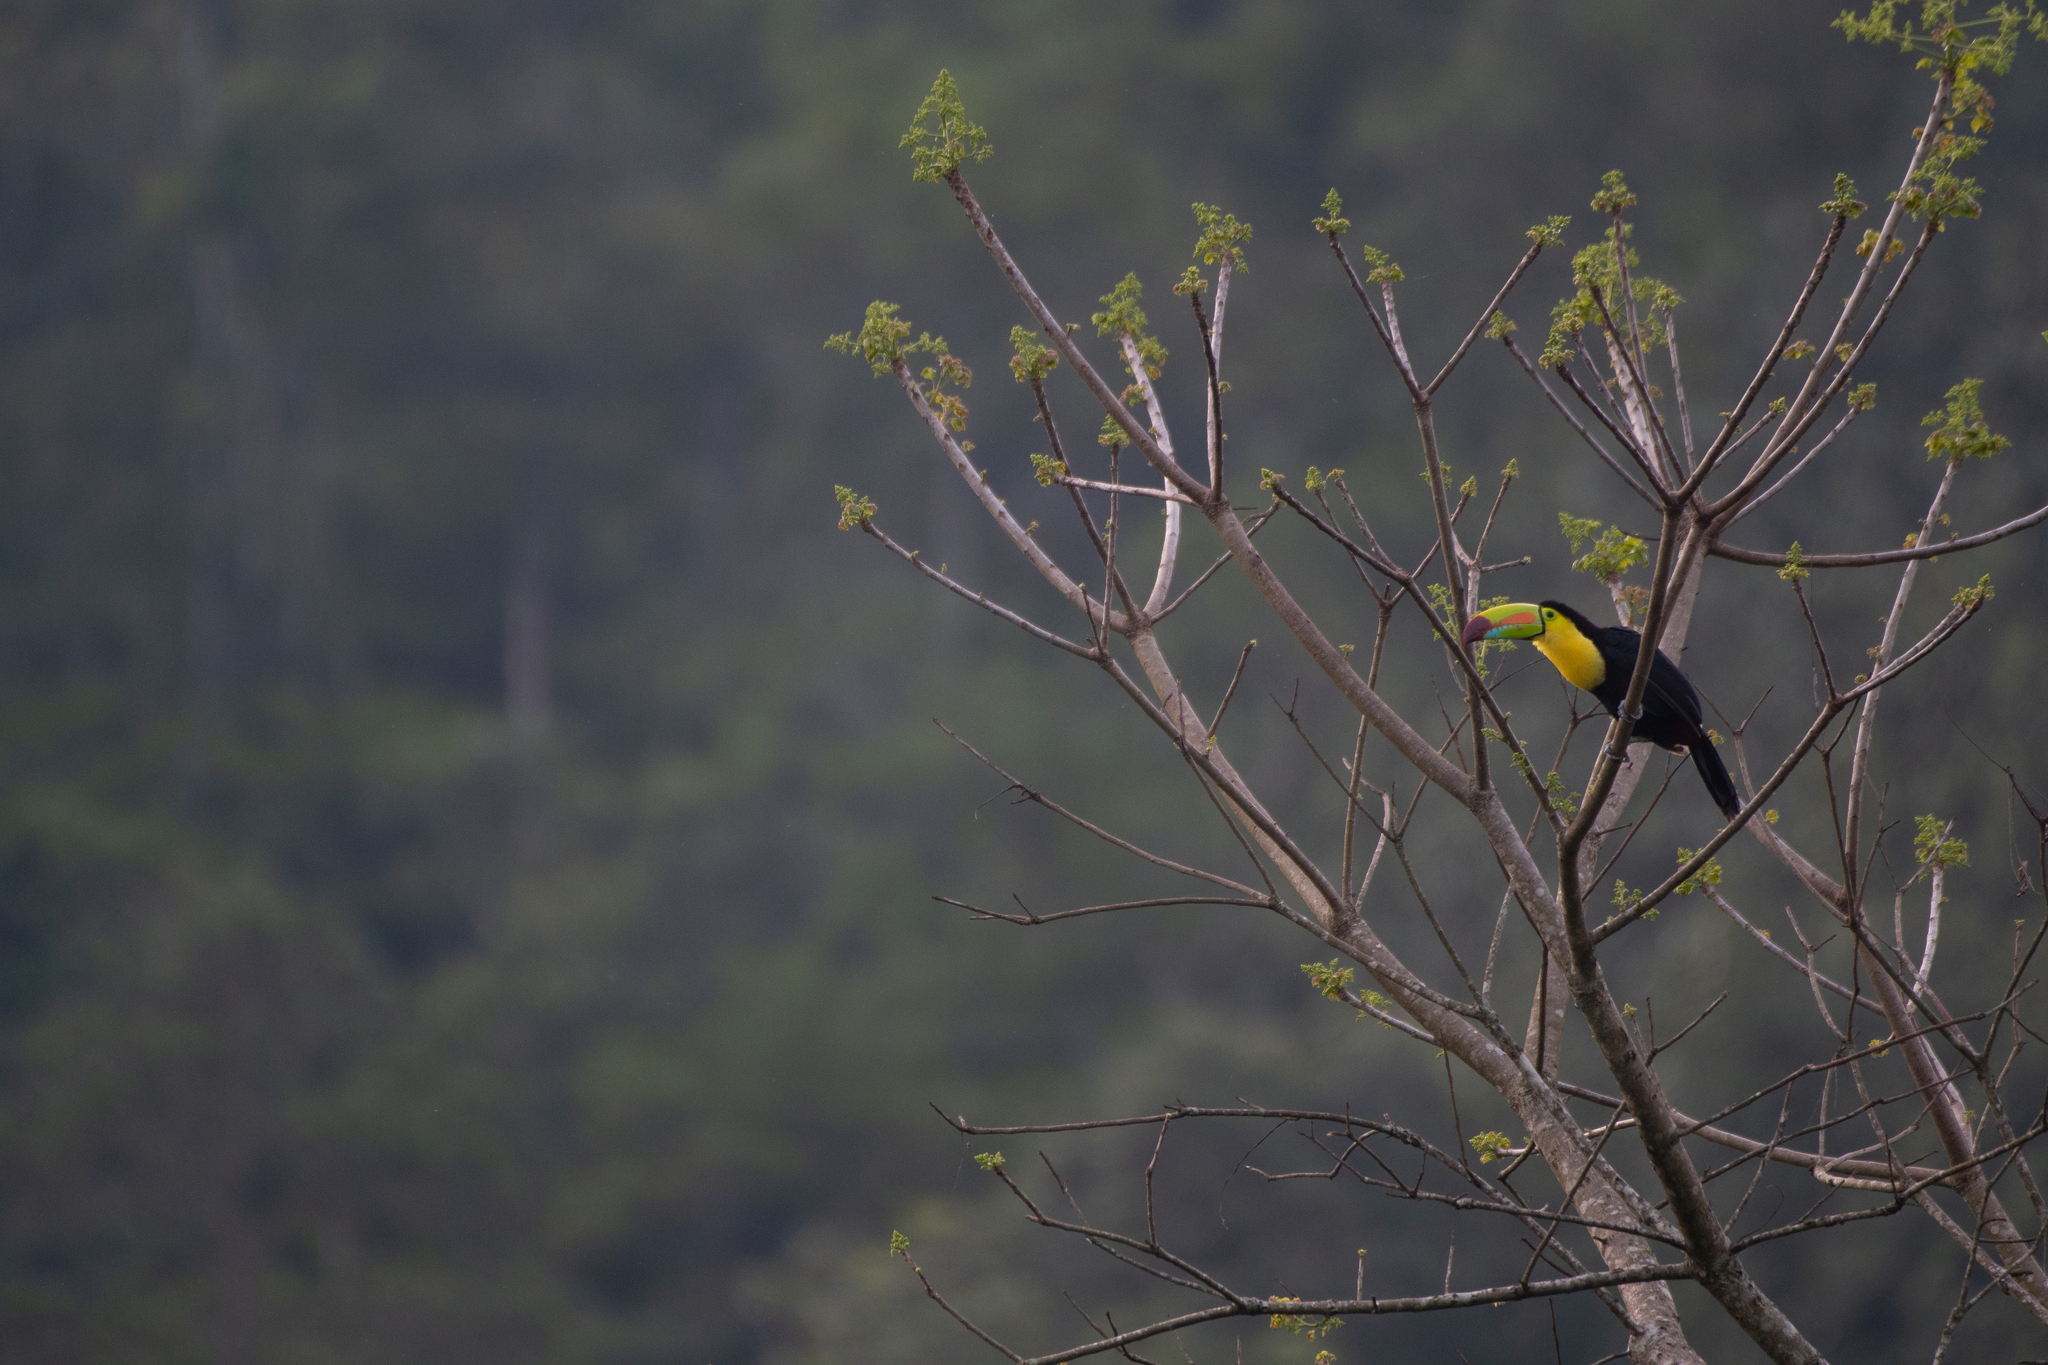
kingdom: Animalia
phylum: Chordata
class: Aves
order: Piciformes
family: Ramphastidae
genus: Ramphastos
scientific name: Ramphastos sulfuratus
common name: Keel-billed toucan
